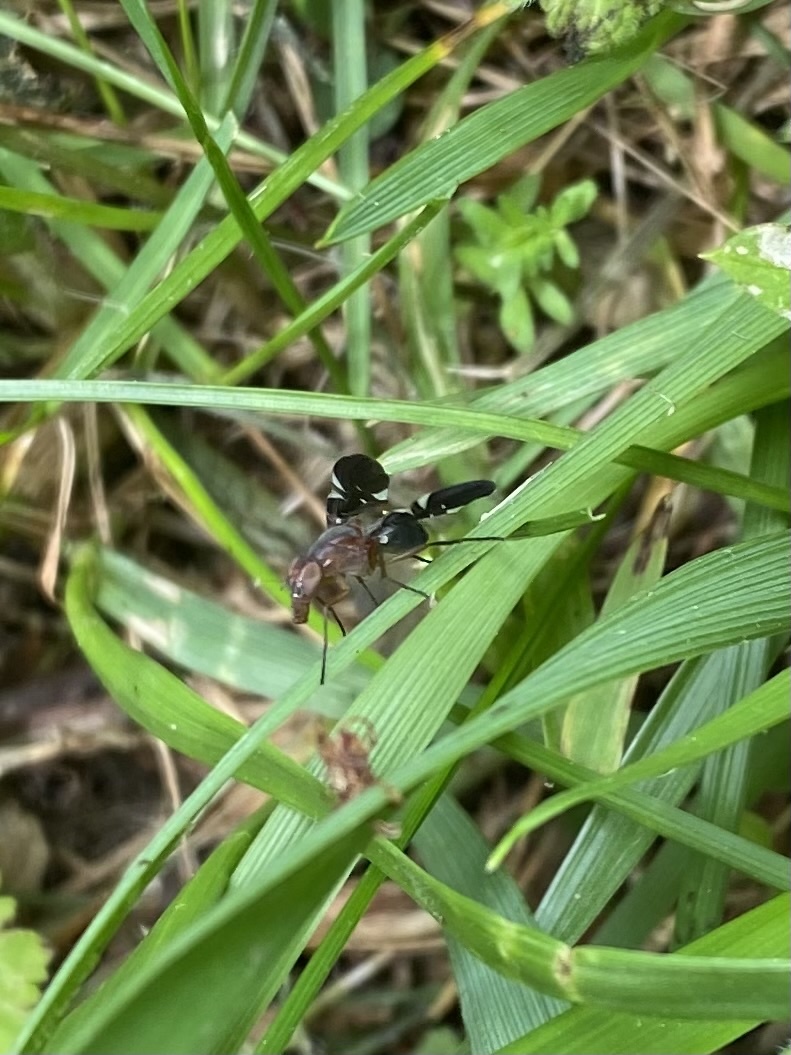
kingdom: Animalia
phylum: Arthropoda
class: Insecta
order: Diptera
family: Ulidiidae
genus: Delphinia
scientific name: Delphinia picta
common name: Common picture-winged fly
